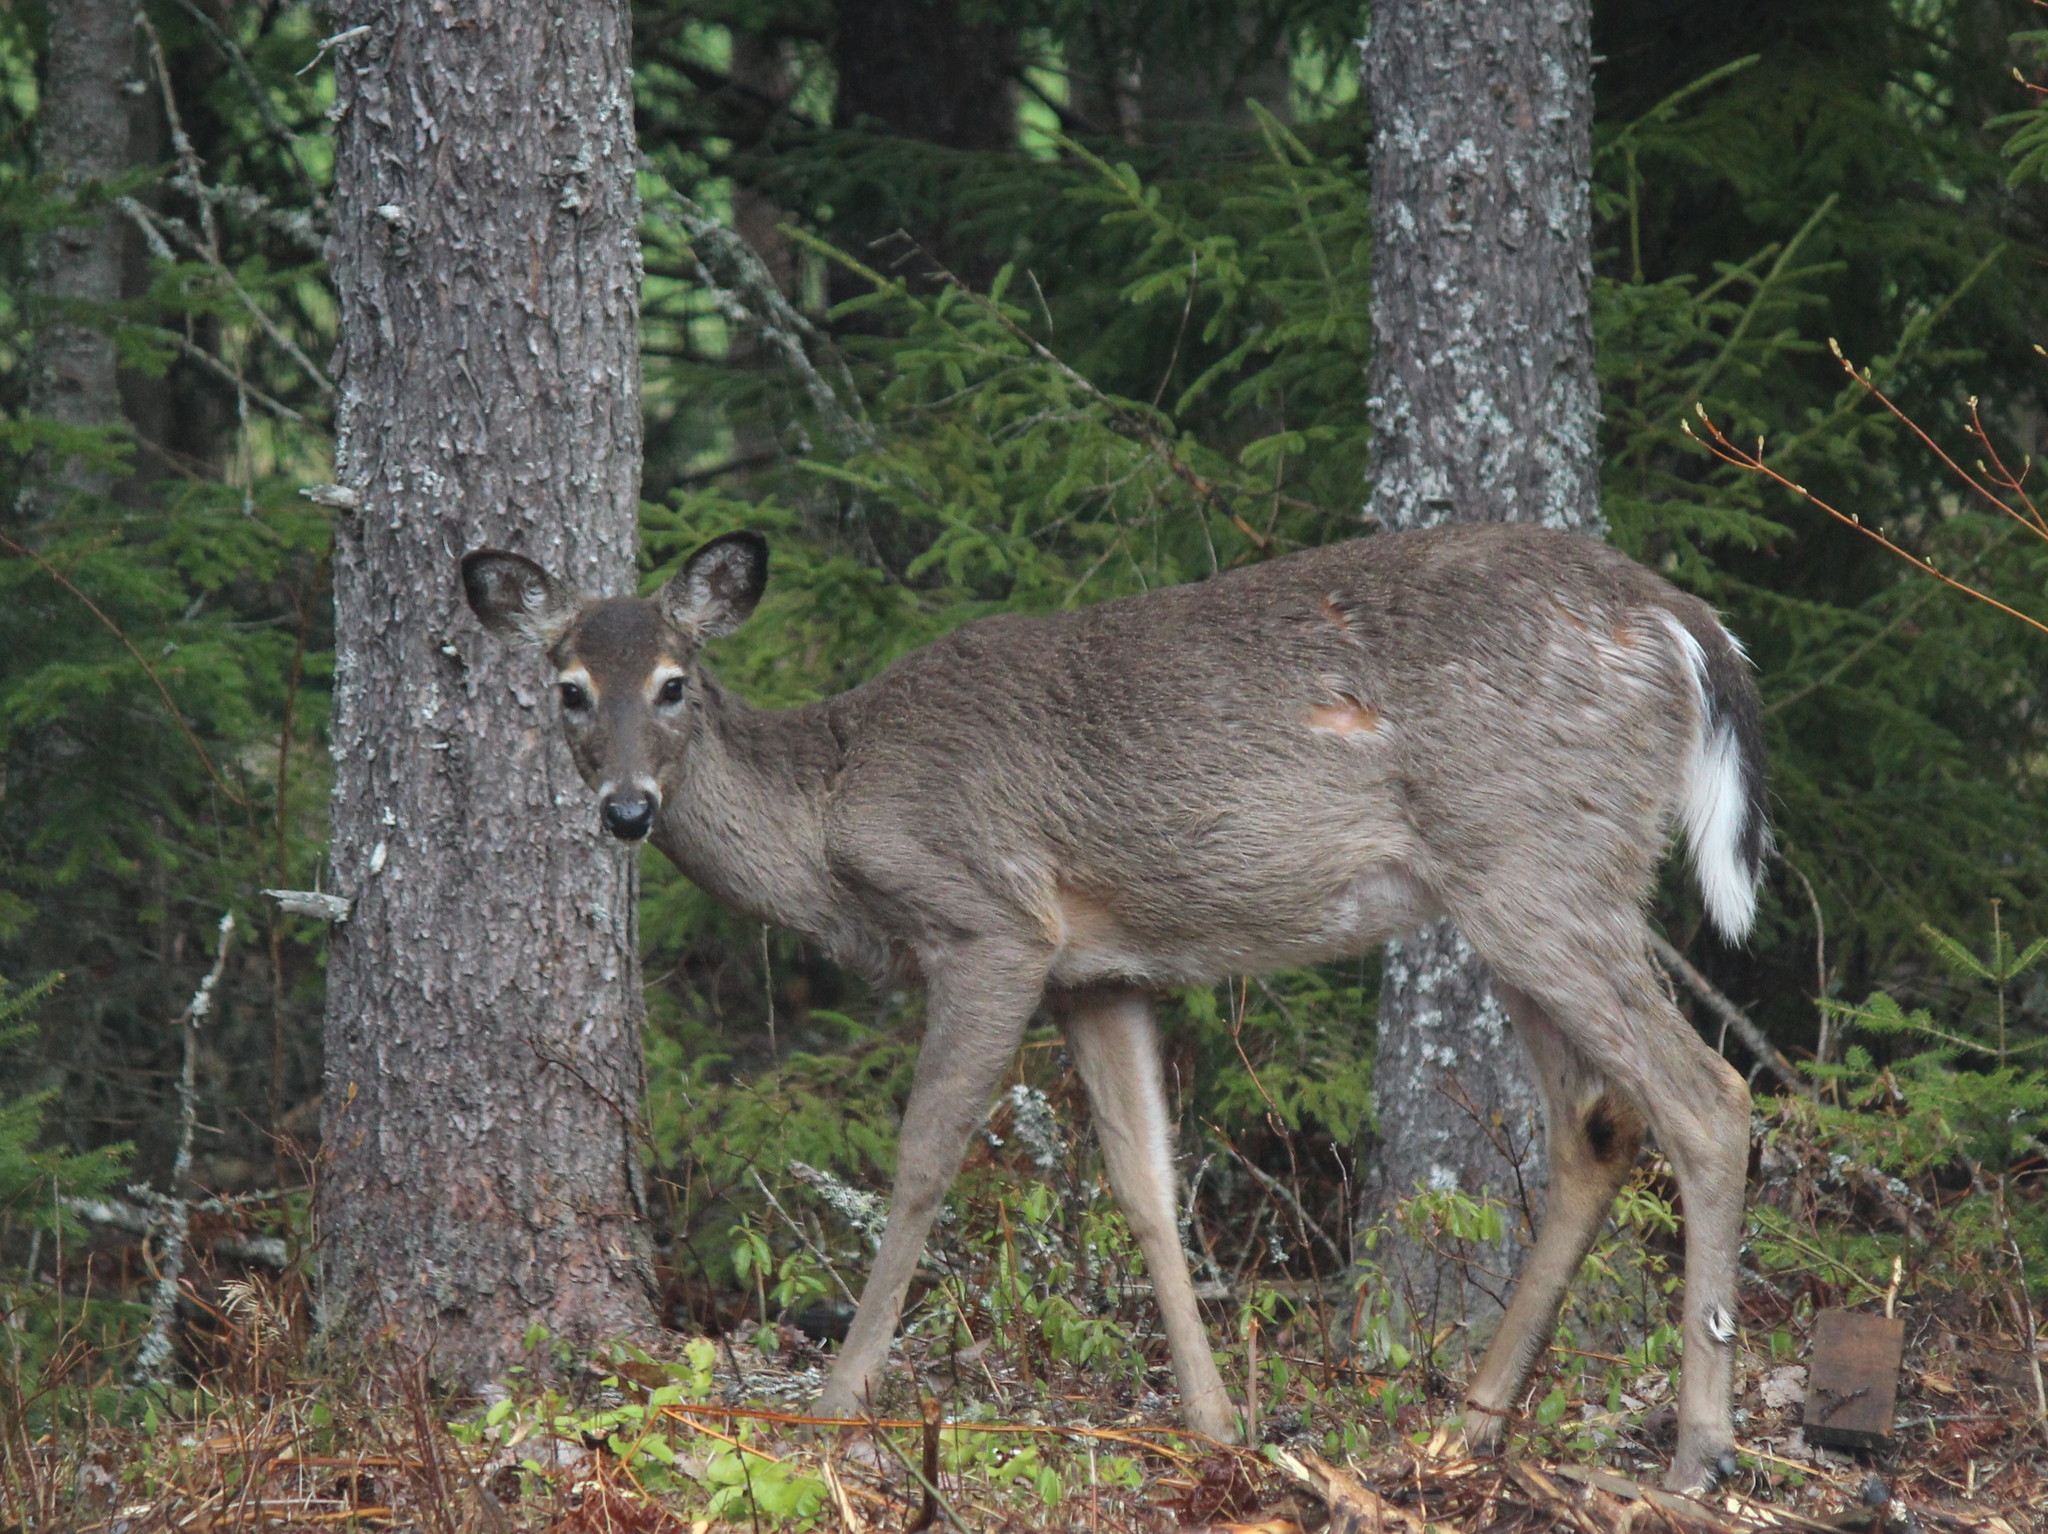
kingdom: Animalia
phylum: Chordata
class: Mammalia
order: Artiodactyla
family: Cervidae
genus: Odocoileus
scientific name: Odocoileus virginianus
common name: White-tailed deer
